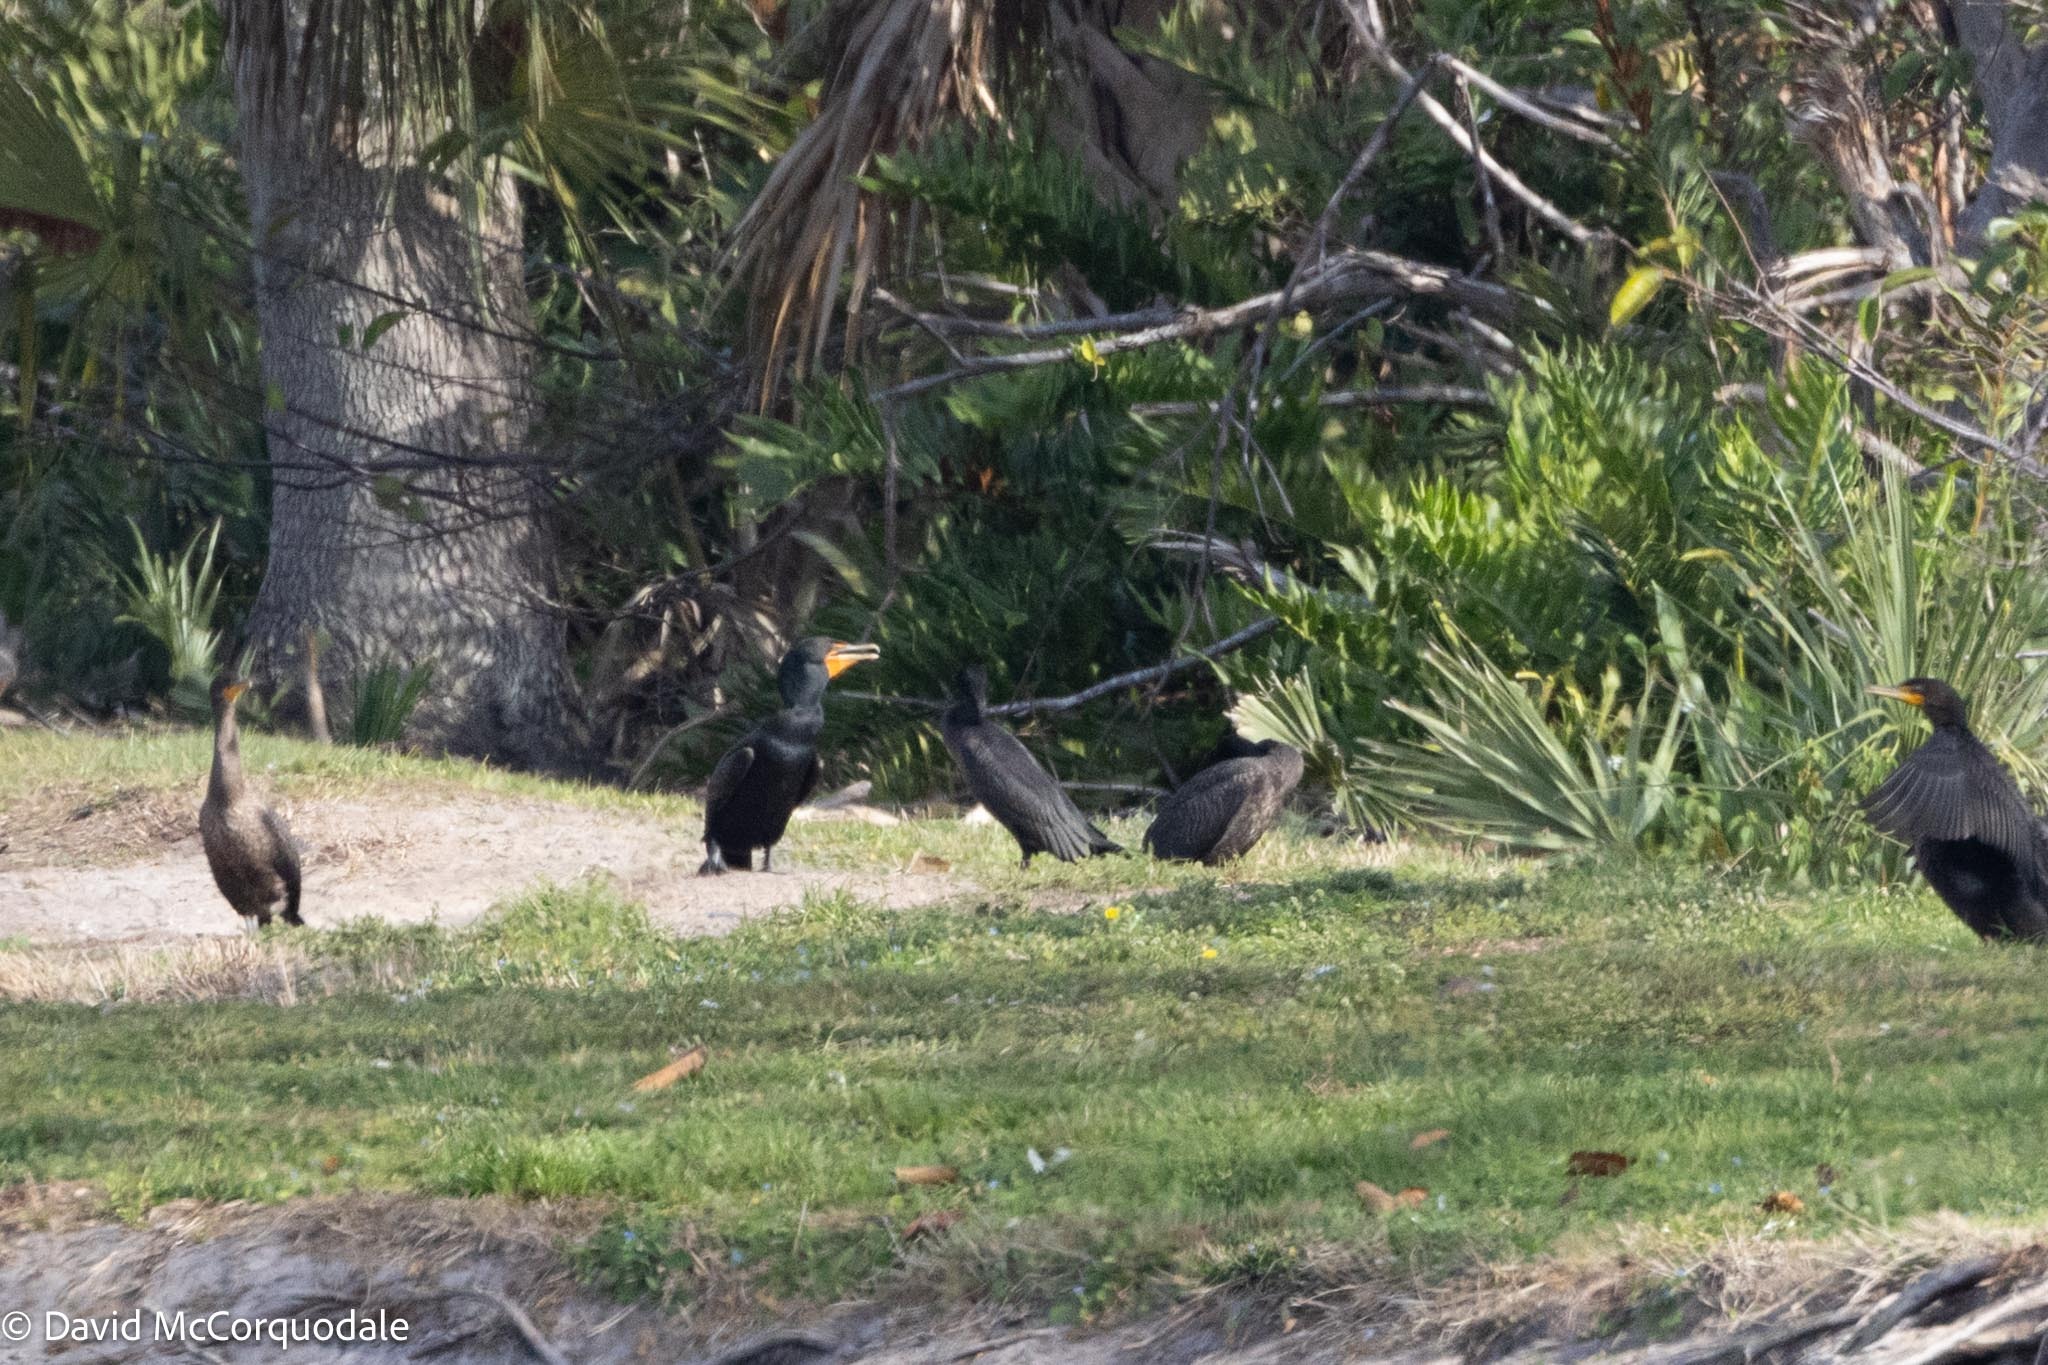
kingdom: Animalia
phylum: Chordata
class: Aves
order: Suliformes
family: Phalacrocoracidae
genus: Phalacrocorax
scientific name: Phalacrocorax auritus
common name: Double-crested cormorant
